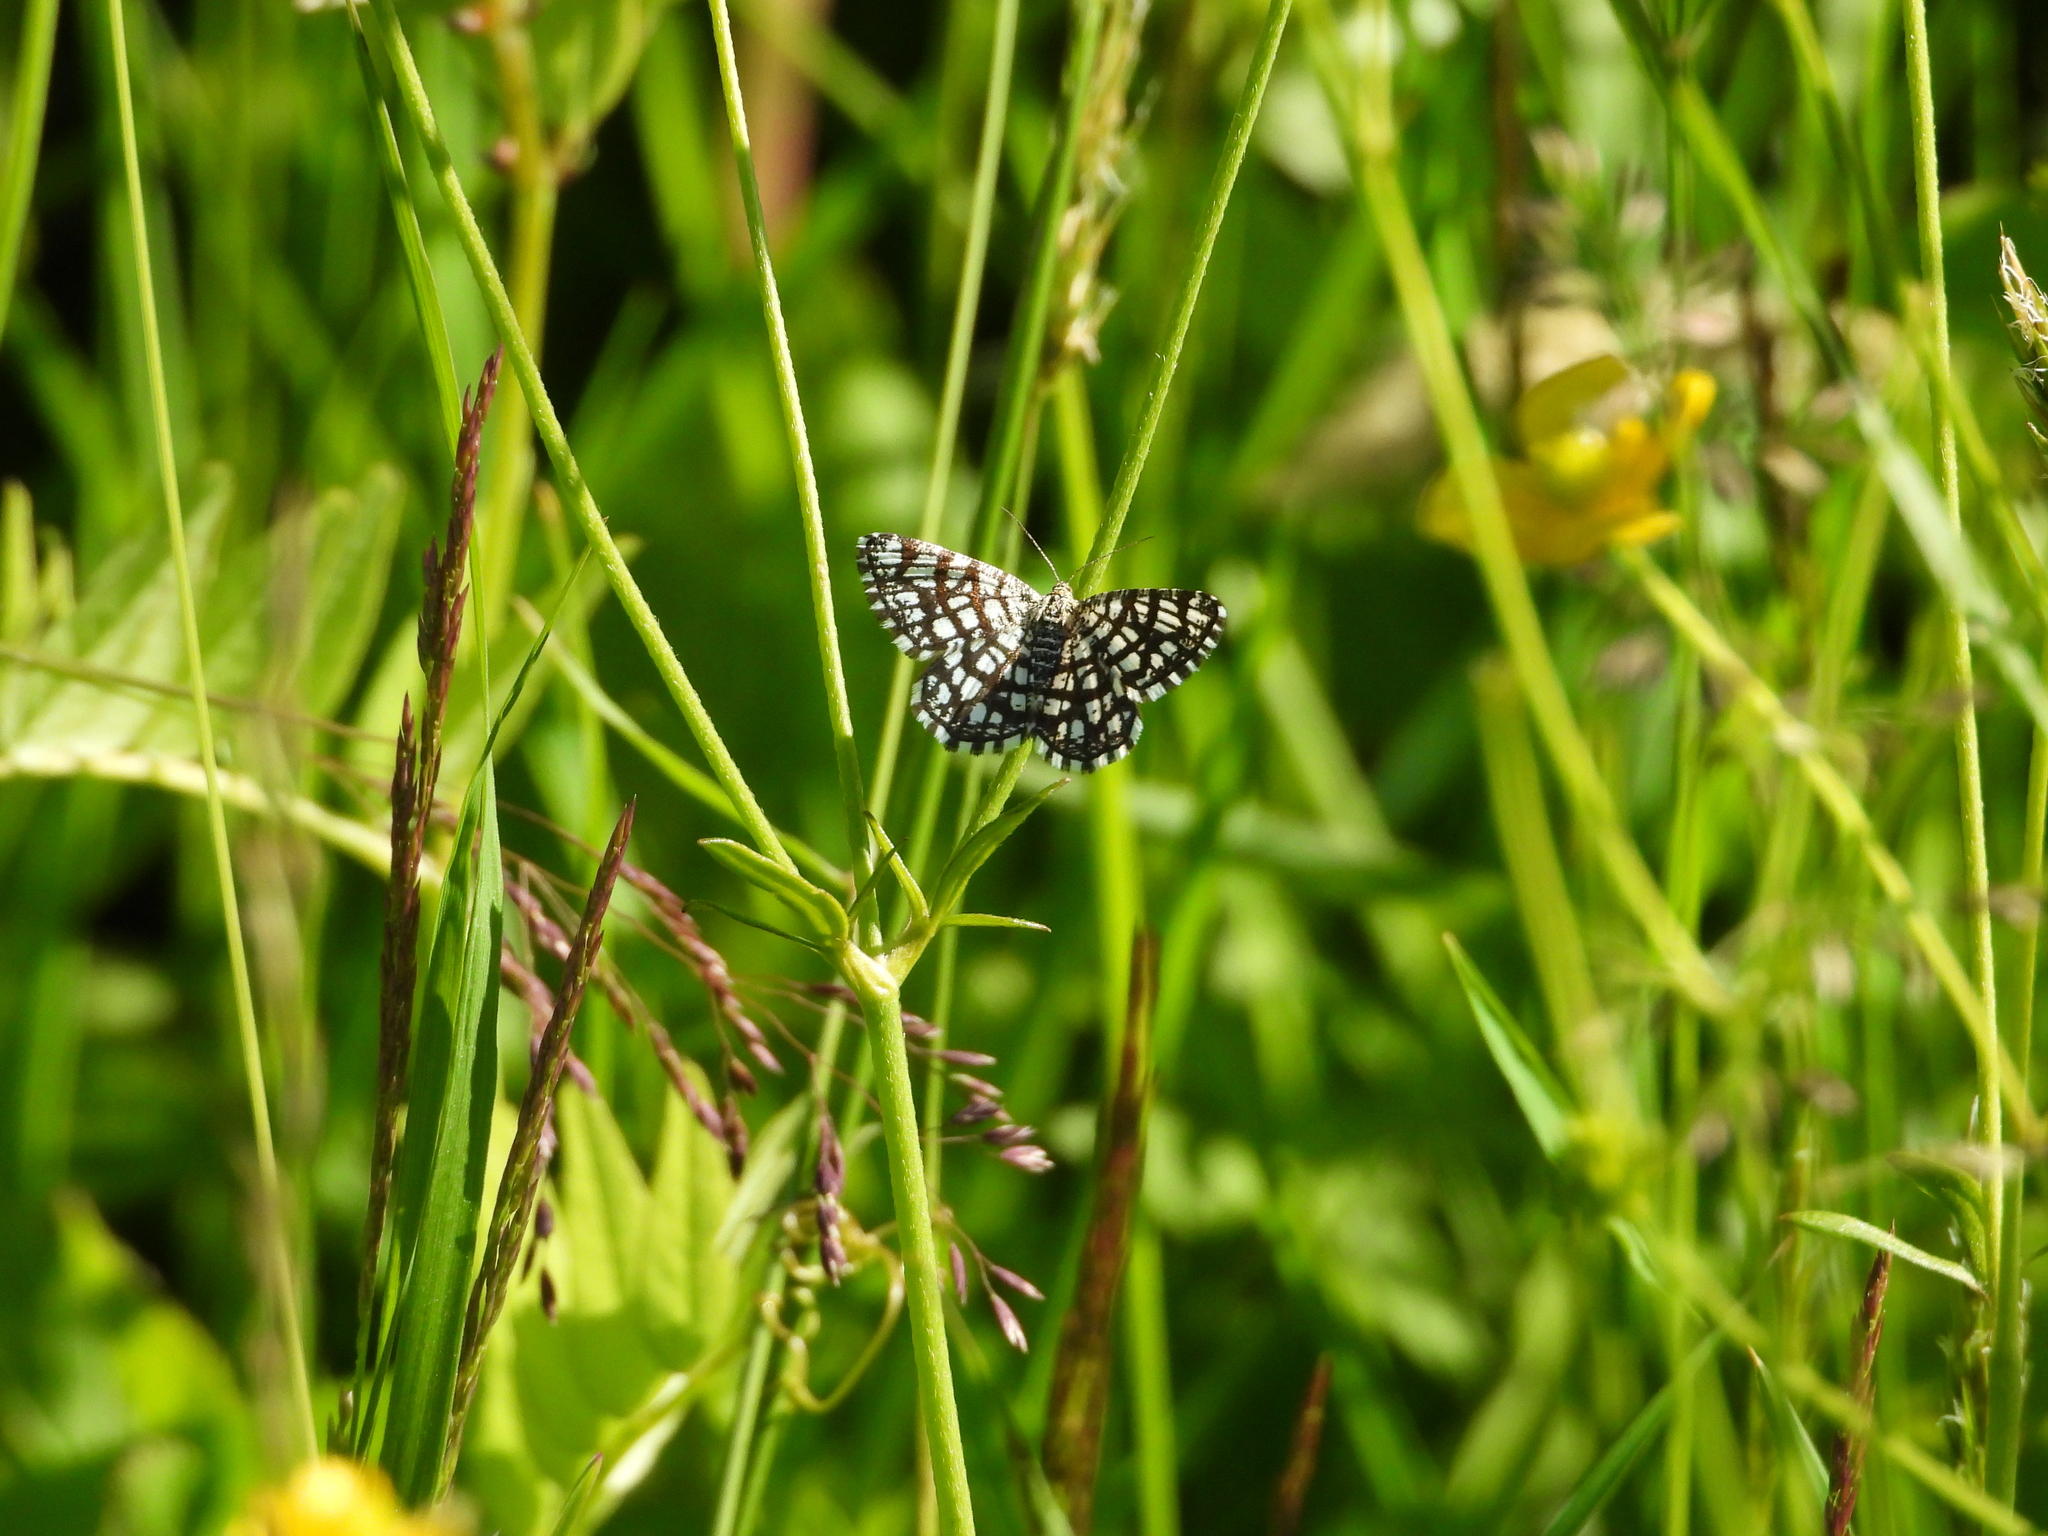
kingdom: Animalia
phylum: Arthropoda
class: Insecta
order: Lepidoptera
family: Geometridae
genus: Chiasmia
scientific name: Chiasmia clathrata
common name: Latticed heath
